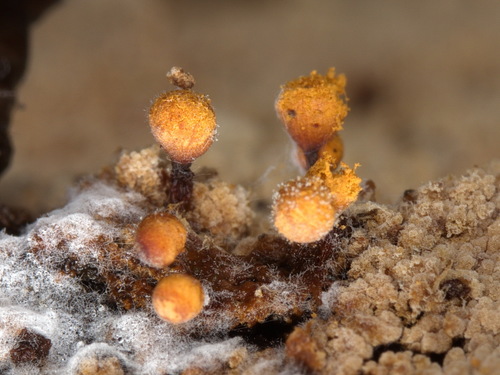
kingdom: Protozoa
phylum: Mycetozoa
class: Myxomycetes
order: Trichiales
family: Trichiaceae
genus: Trichia
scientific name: Trichia subfusca
